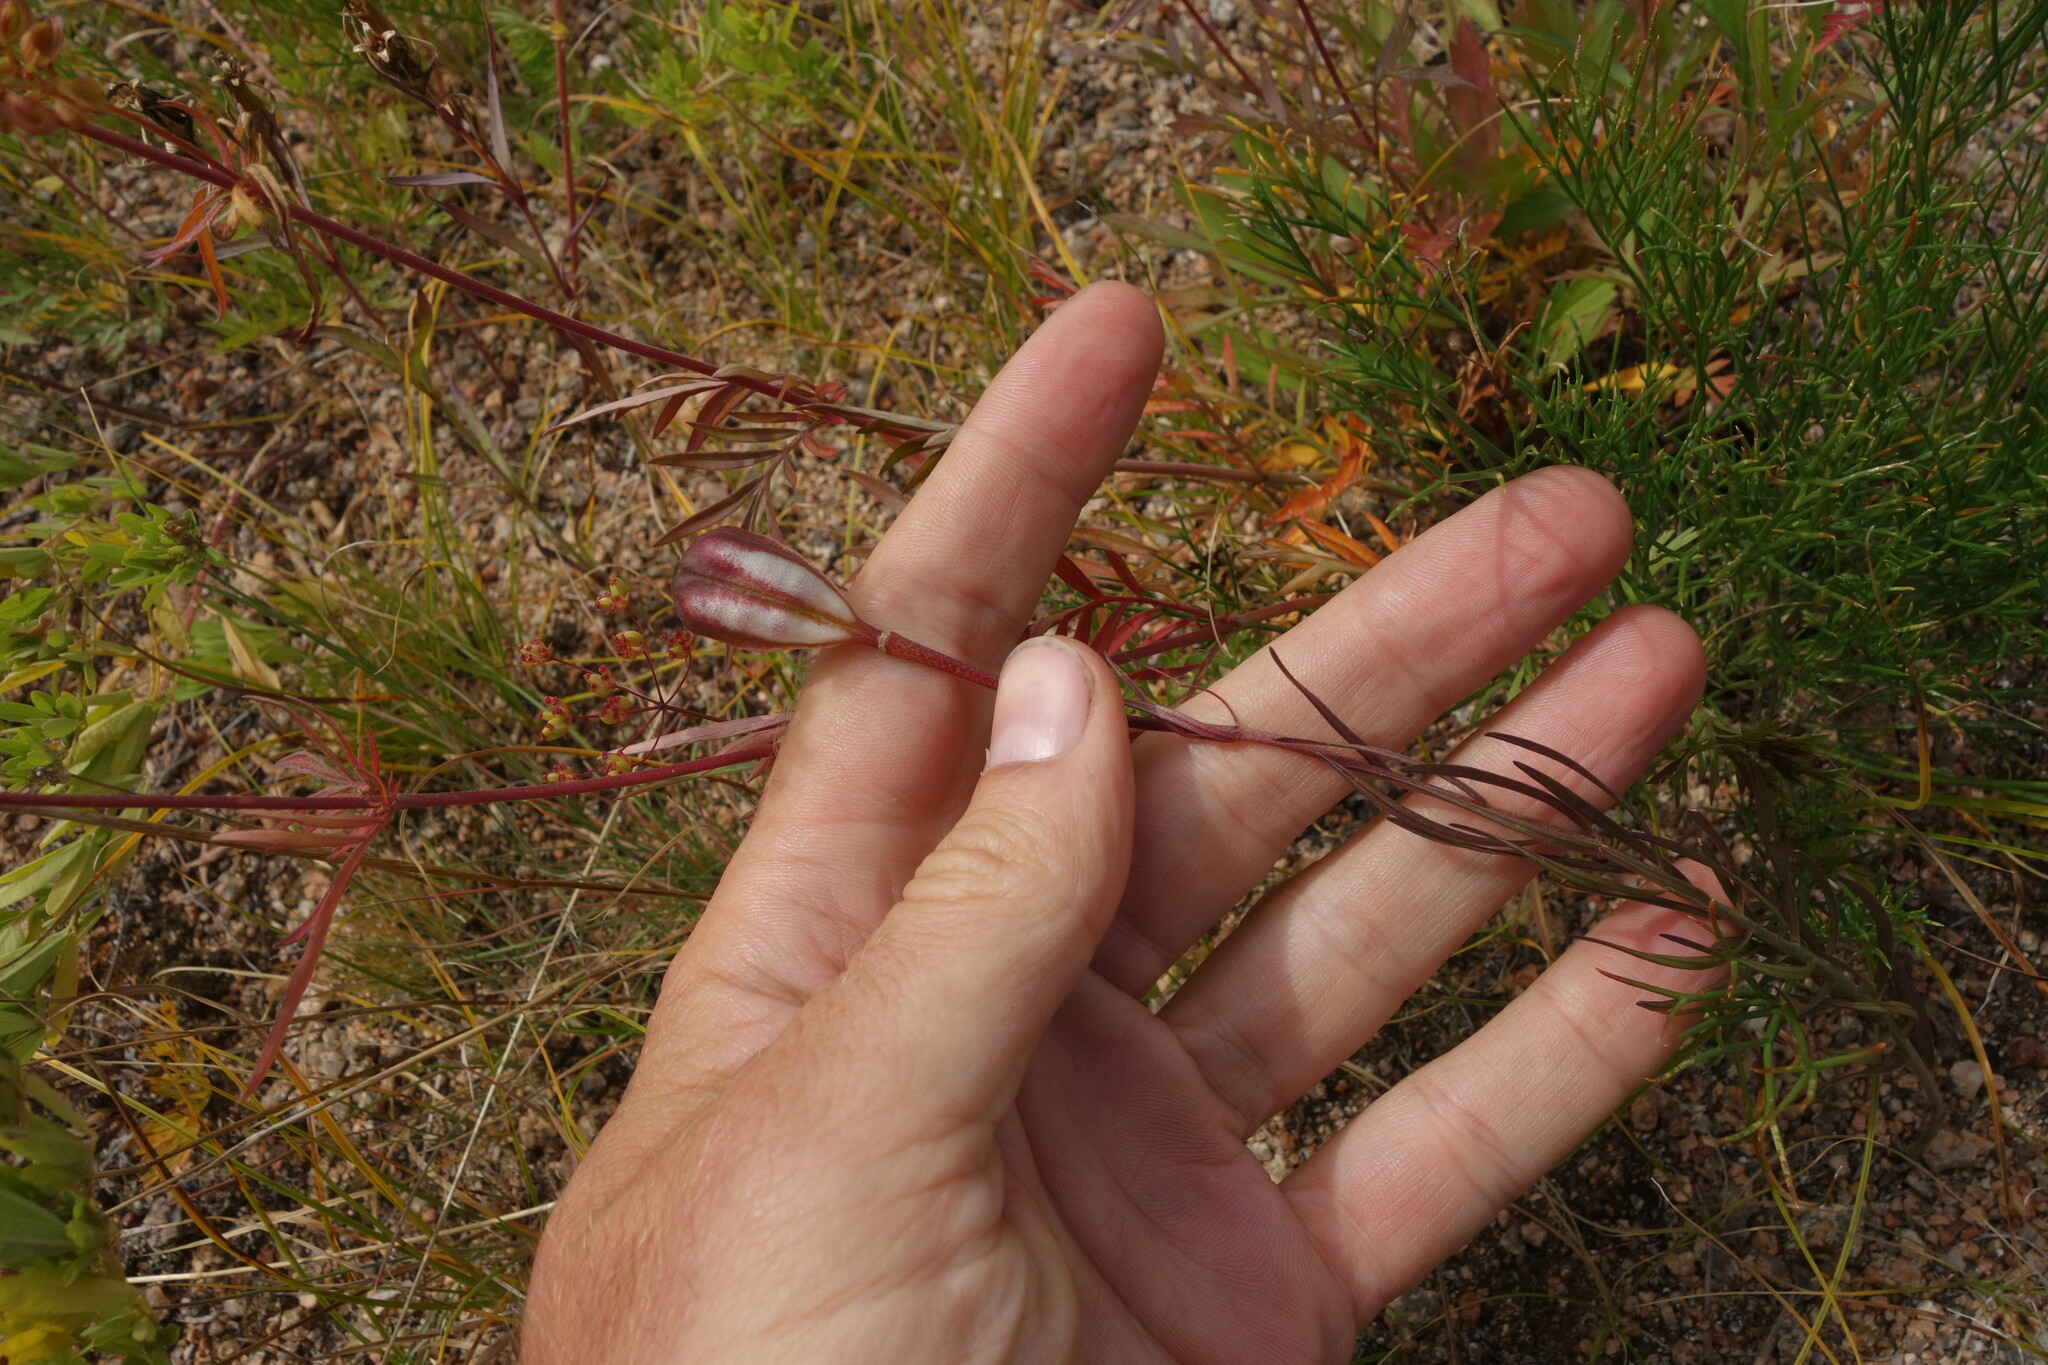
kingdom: Plantae
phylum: Tracheophyta
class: Liliopsida
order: Liliales
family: Liliaceae
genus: Lilium
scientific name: Lilium pumilum
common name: Coral lily
